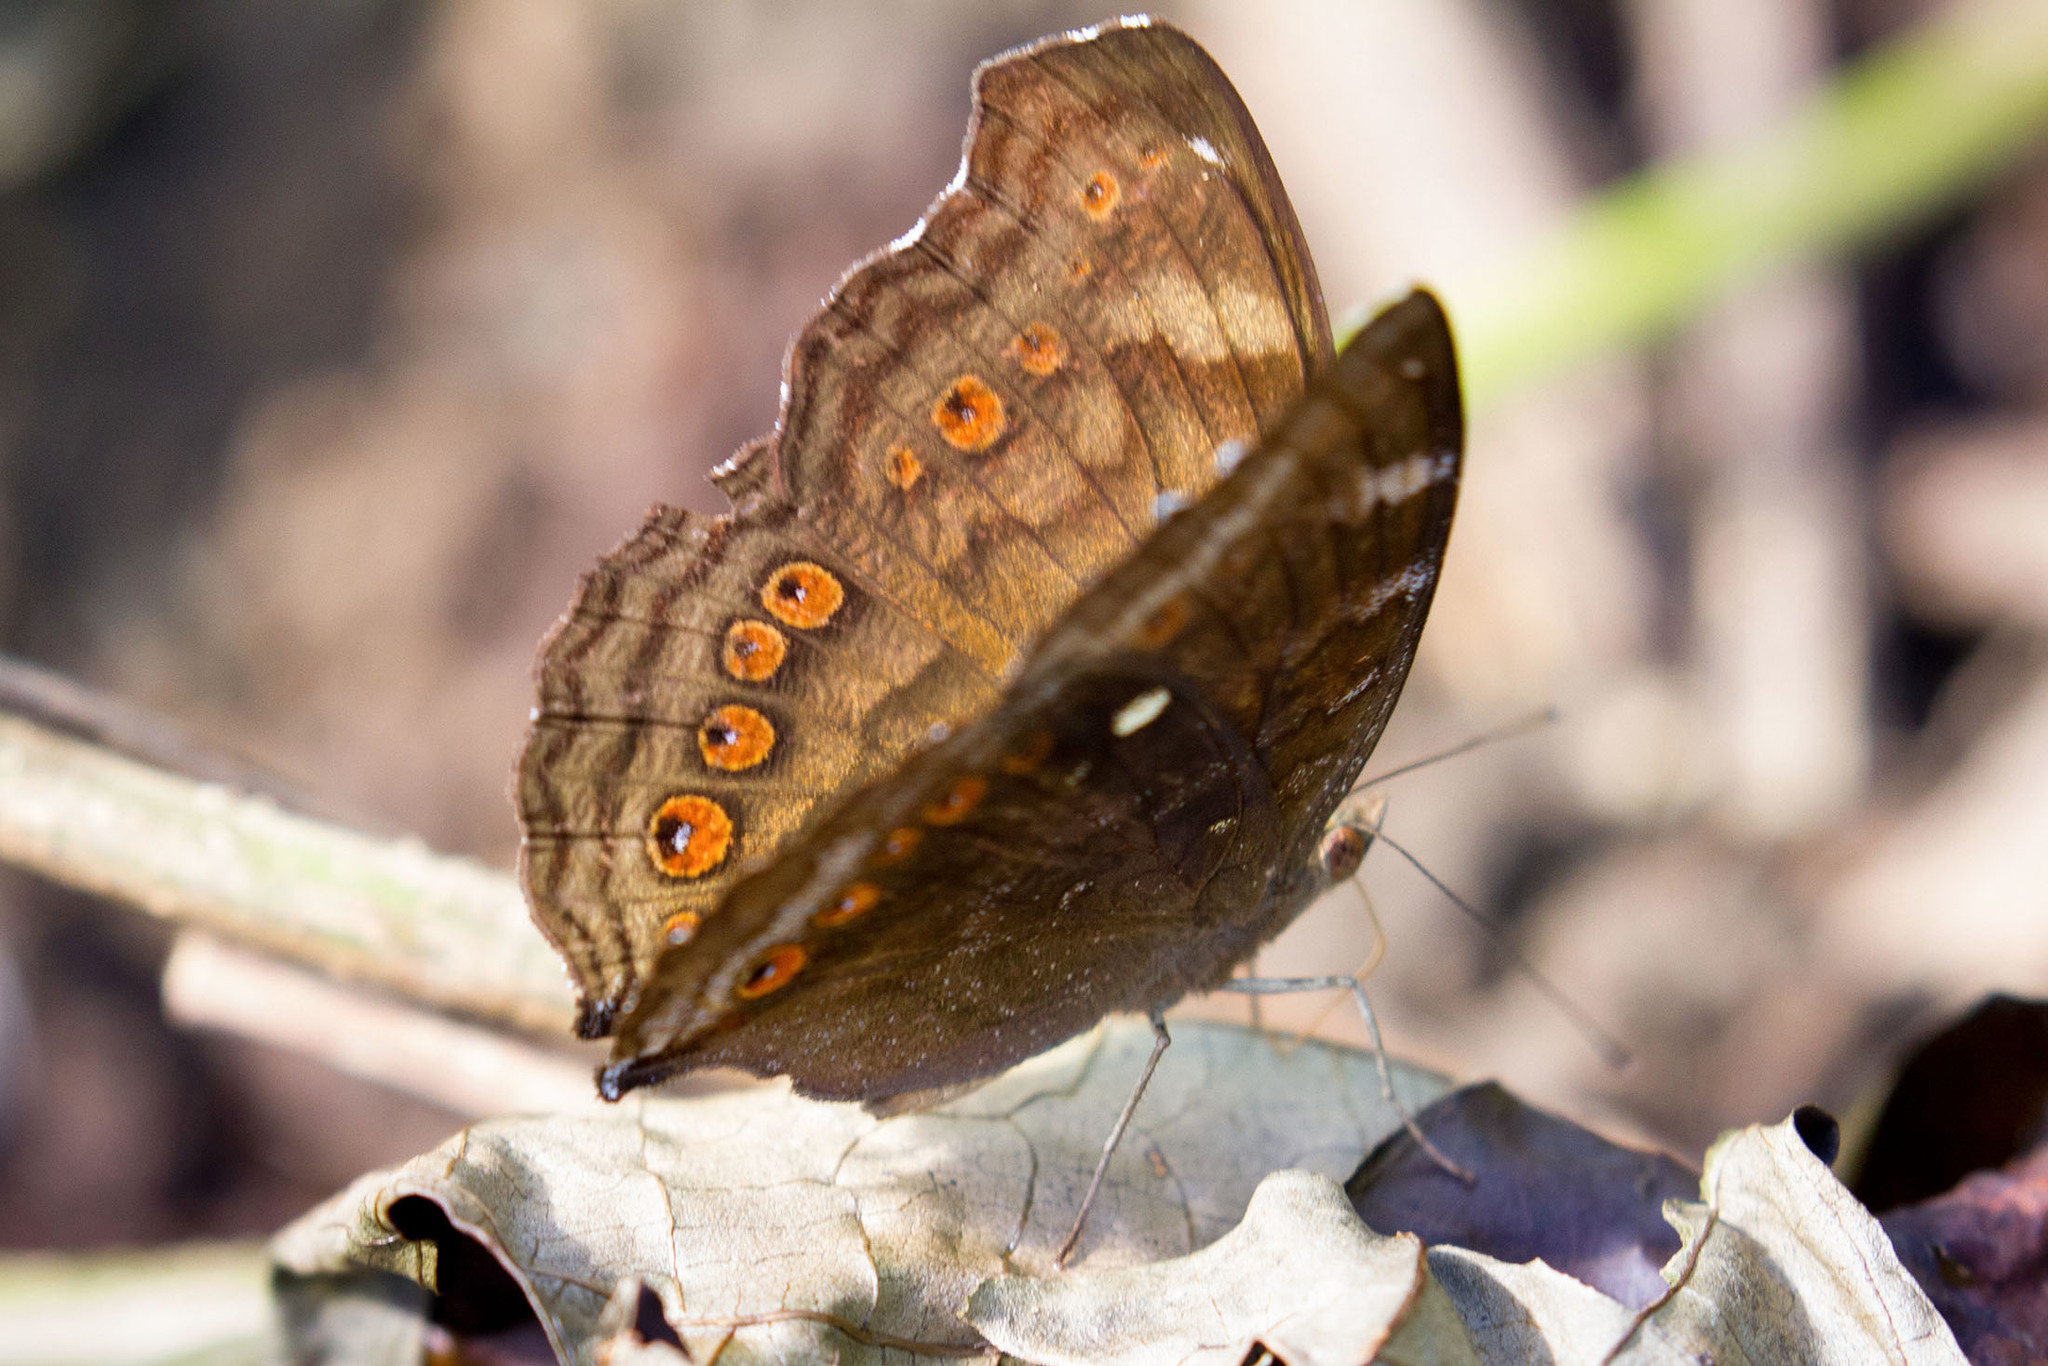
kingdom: Animalia
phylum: Arthropoda
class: Insecta
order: Lepidoptera
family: Nymphalidae
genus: Junonia
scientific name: Junonia hedonia
